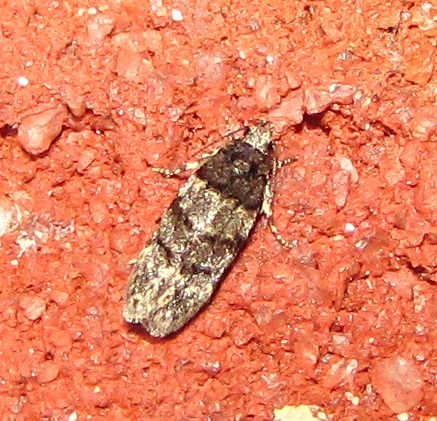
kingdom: Animalia
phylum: Arthropoda
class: Insecta
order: Lepidoptera
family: Gelechiidae
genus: Pubitelphusa
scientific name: Pubitelphusa latifasciella
